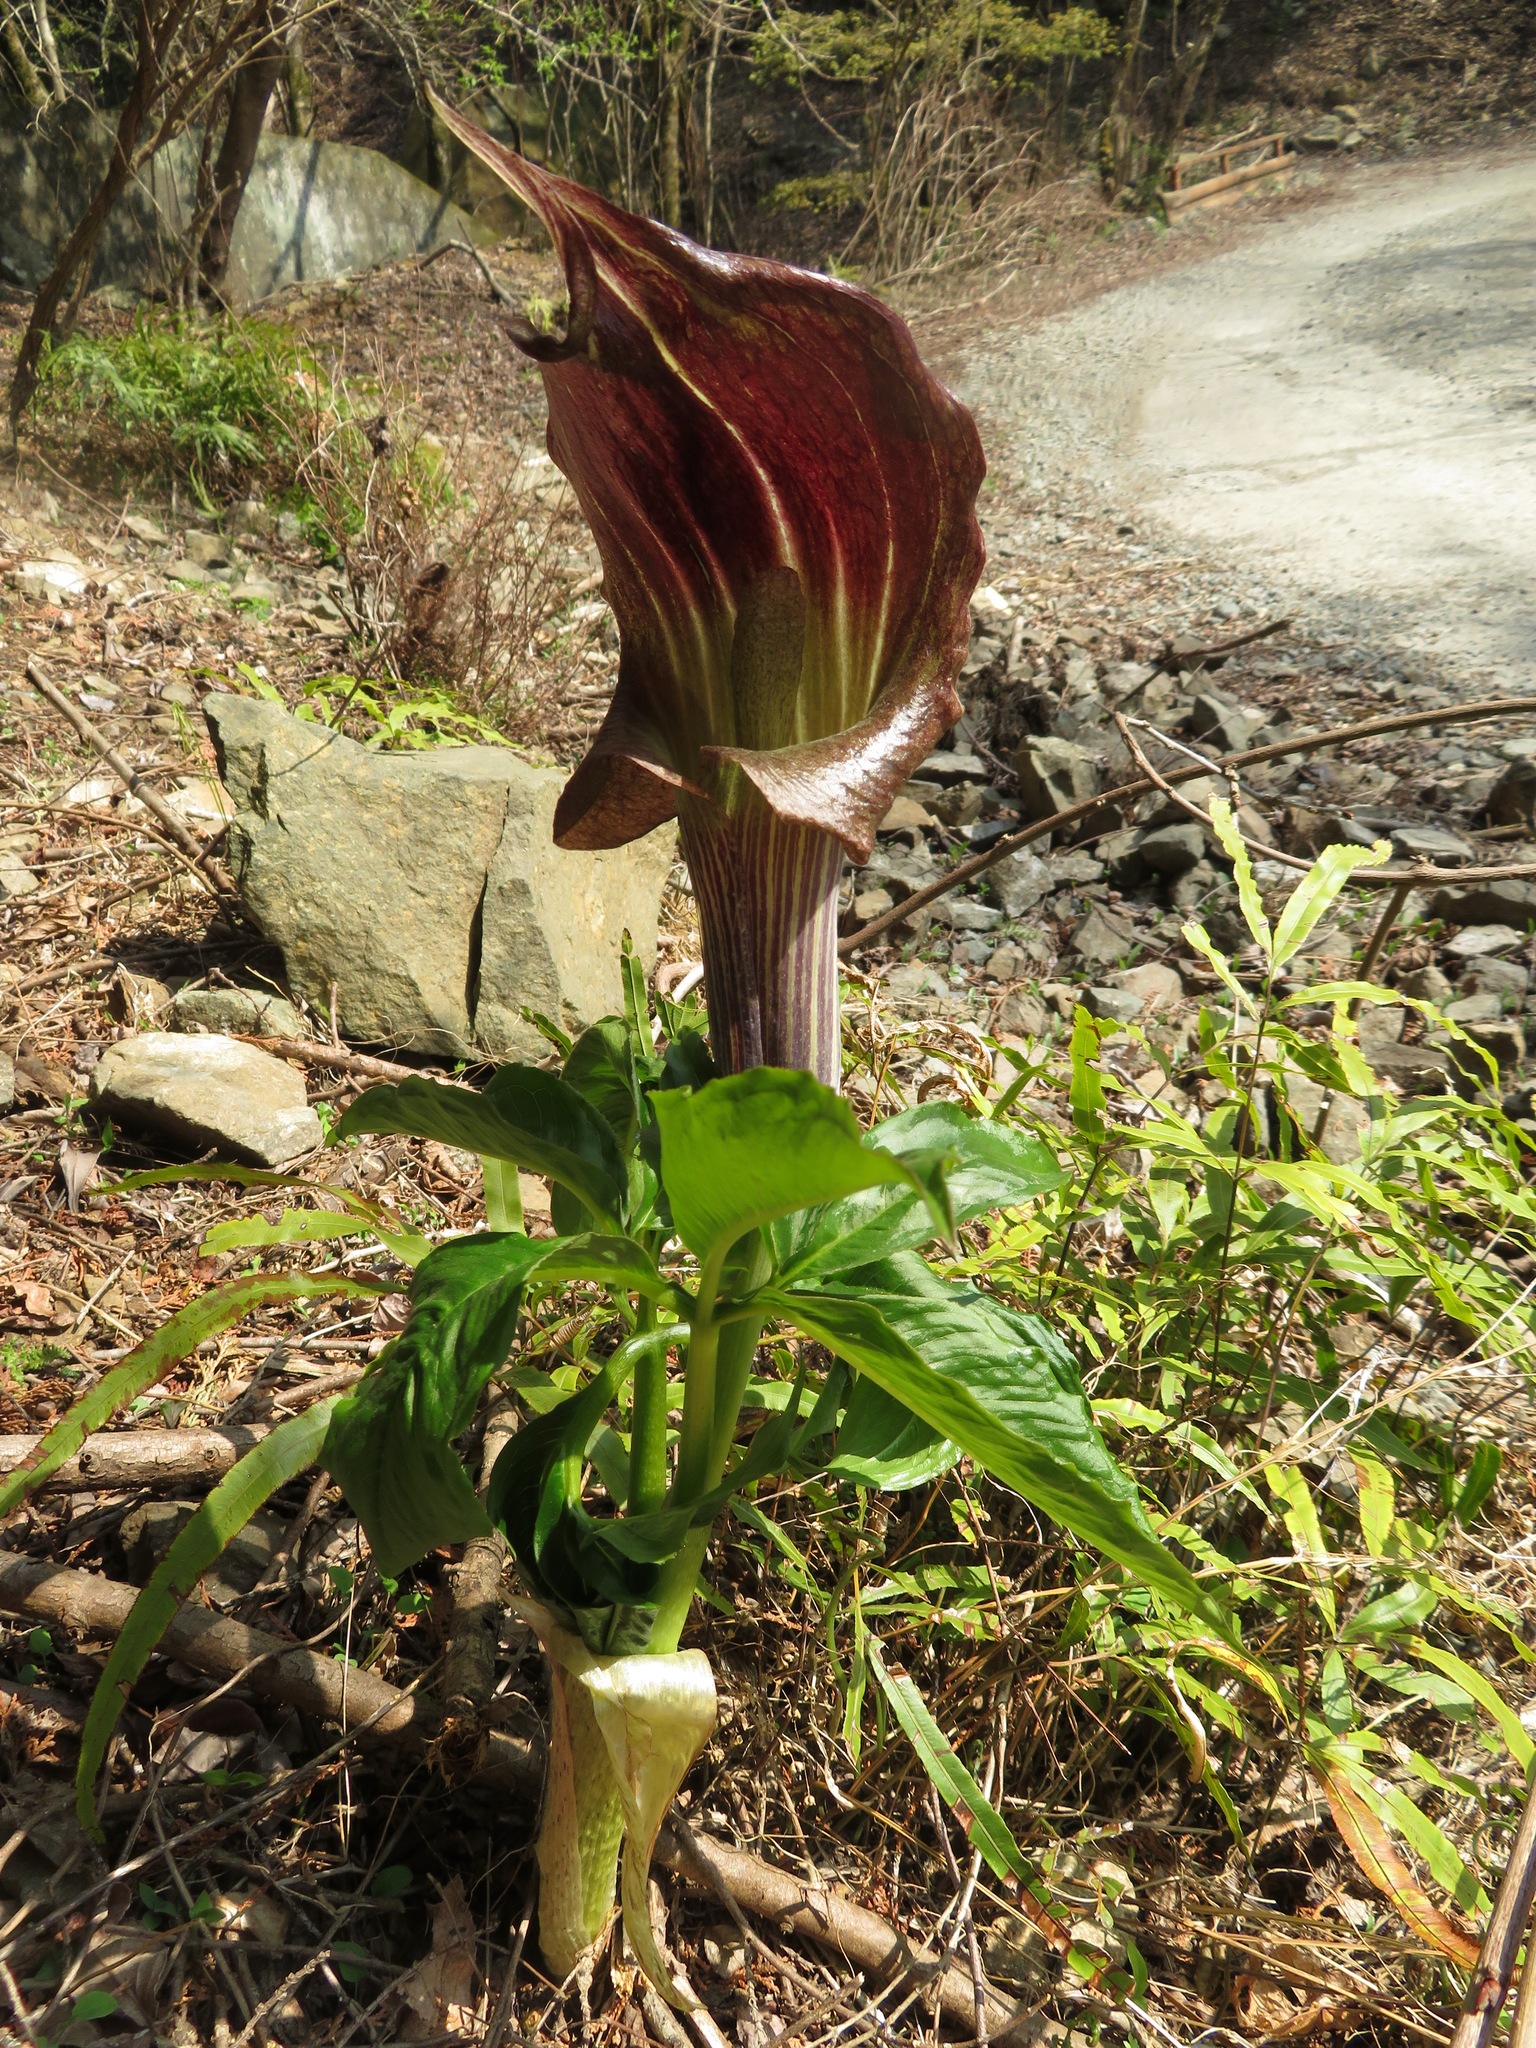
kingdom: Plantae
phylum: Tracheophyta
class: Liliopsida
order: Alismatales
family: Araceae
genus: Arisaema
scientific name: Arisaema limbatum
